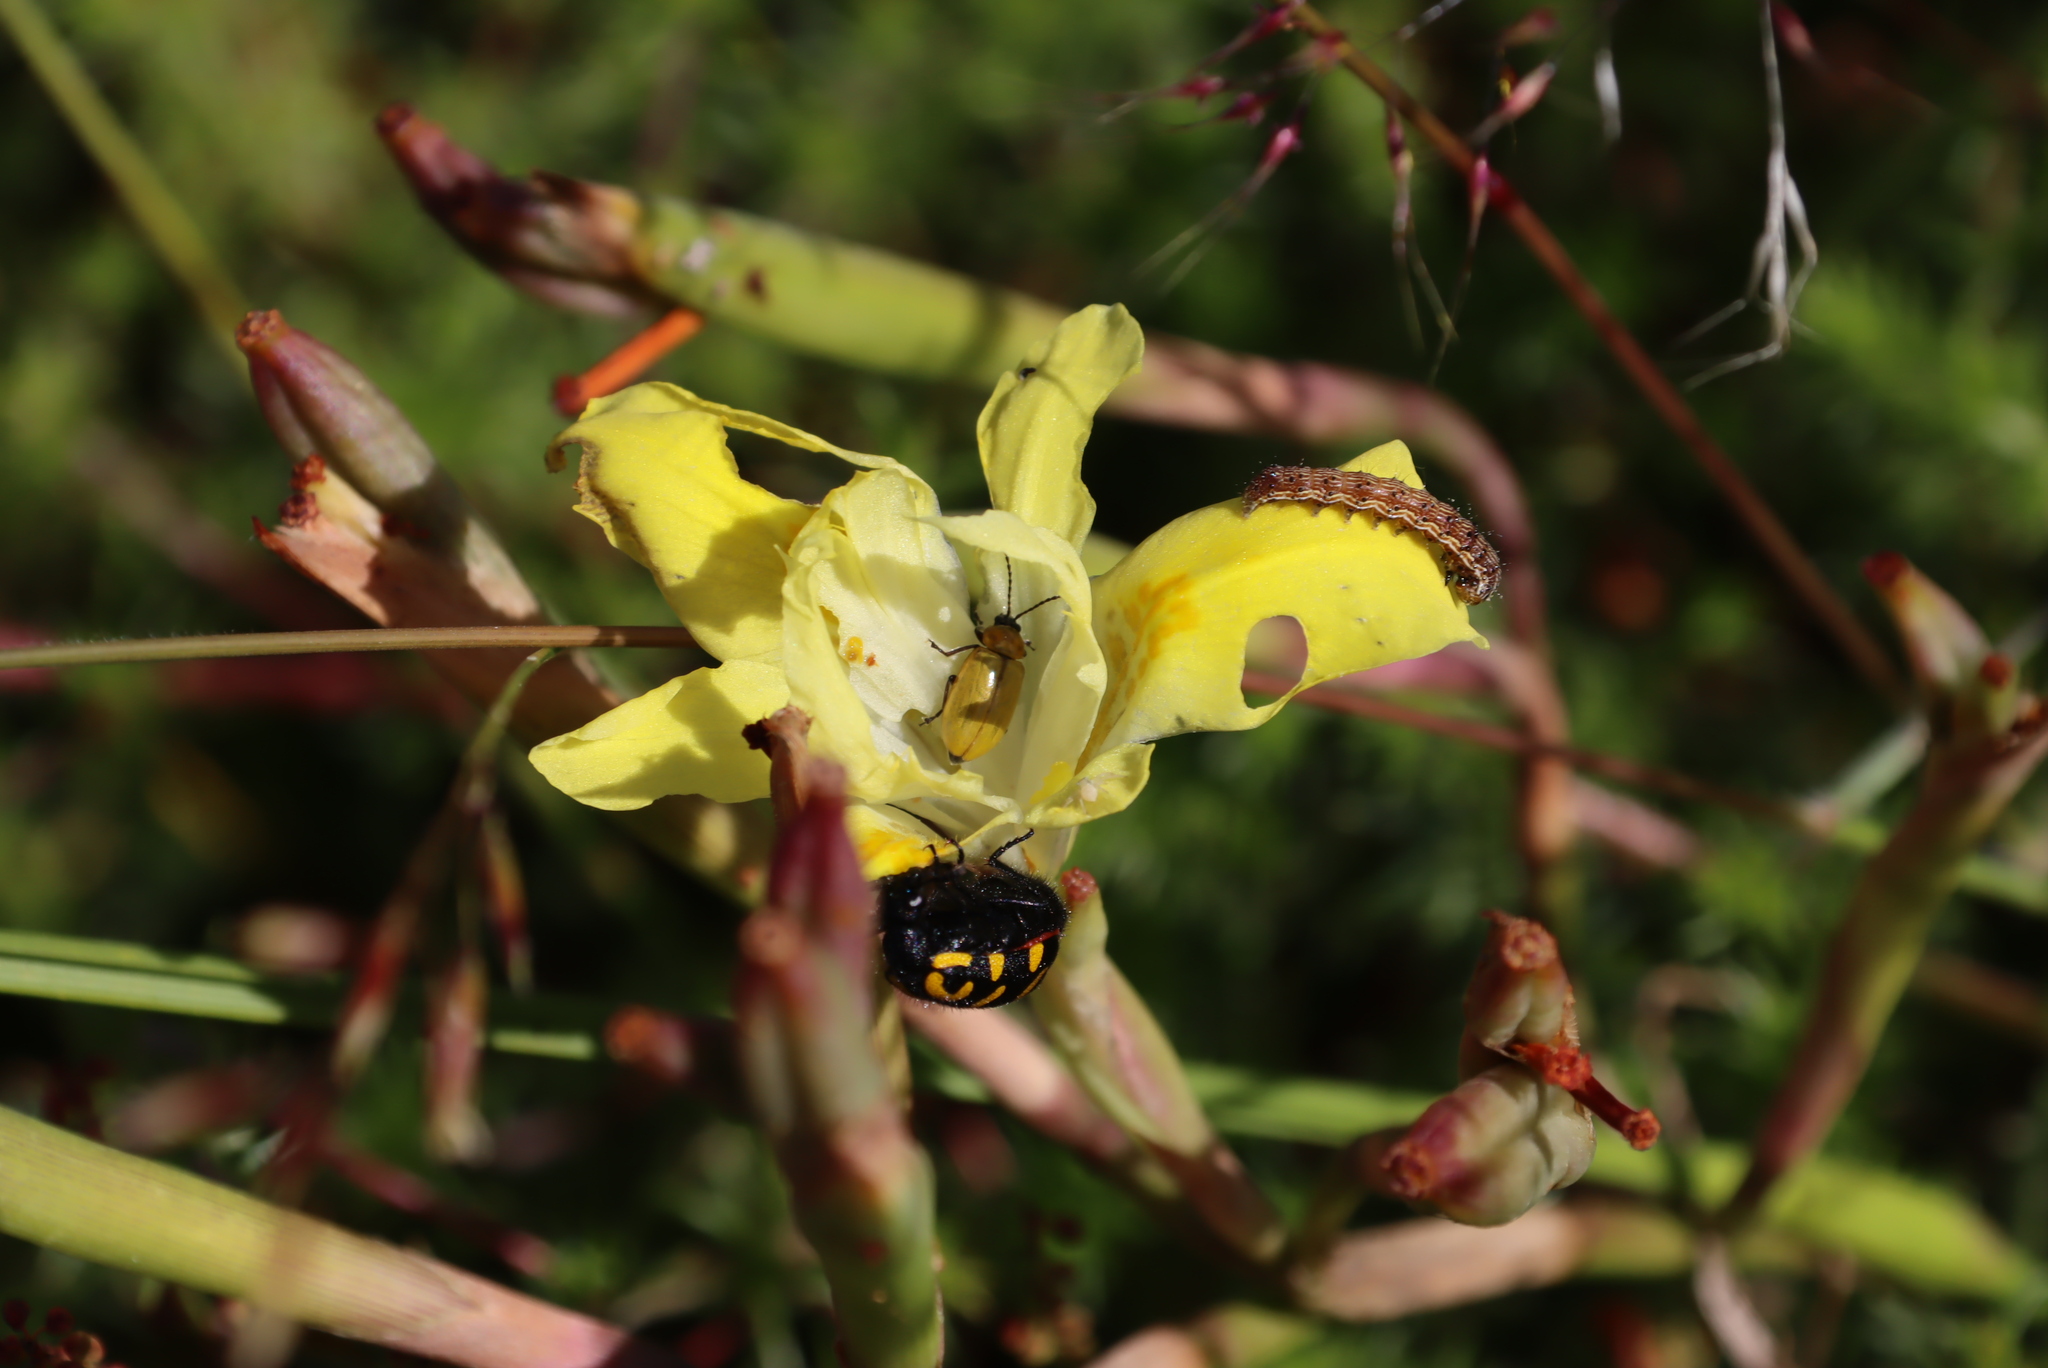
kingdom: Animalia
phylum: Arthropoda
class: Insecta
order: Coleoptera
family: Meloidae
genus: Ceroctis
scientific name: Ceroctis capensis
